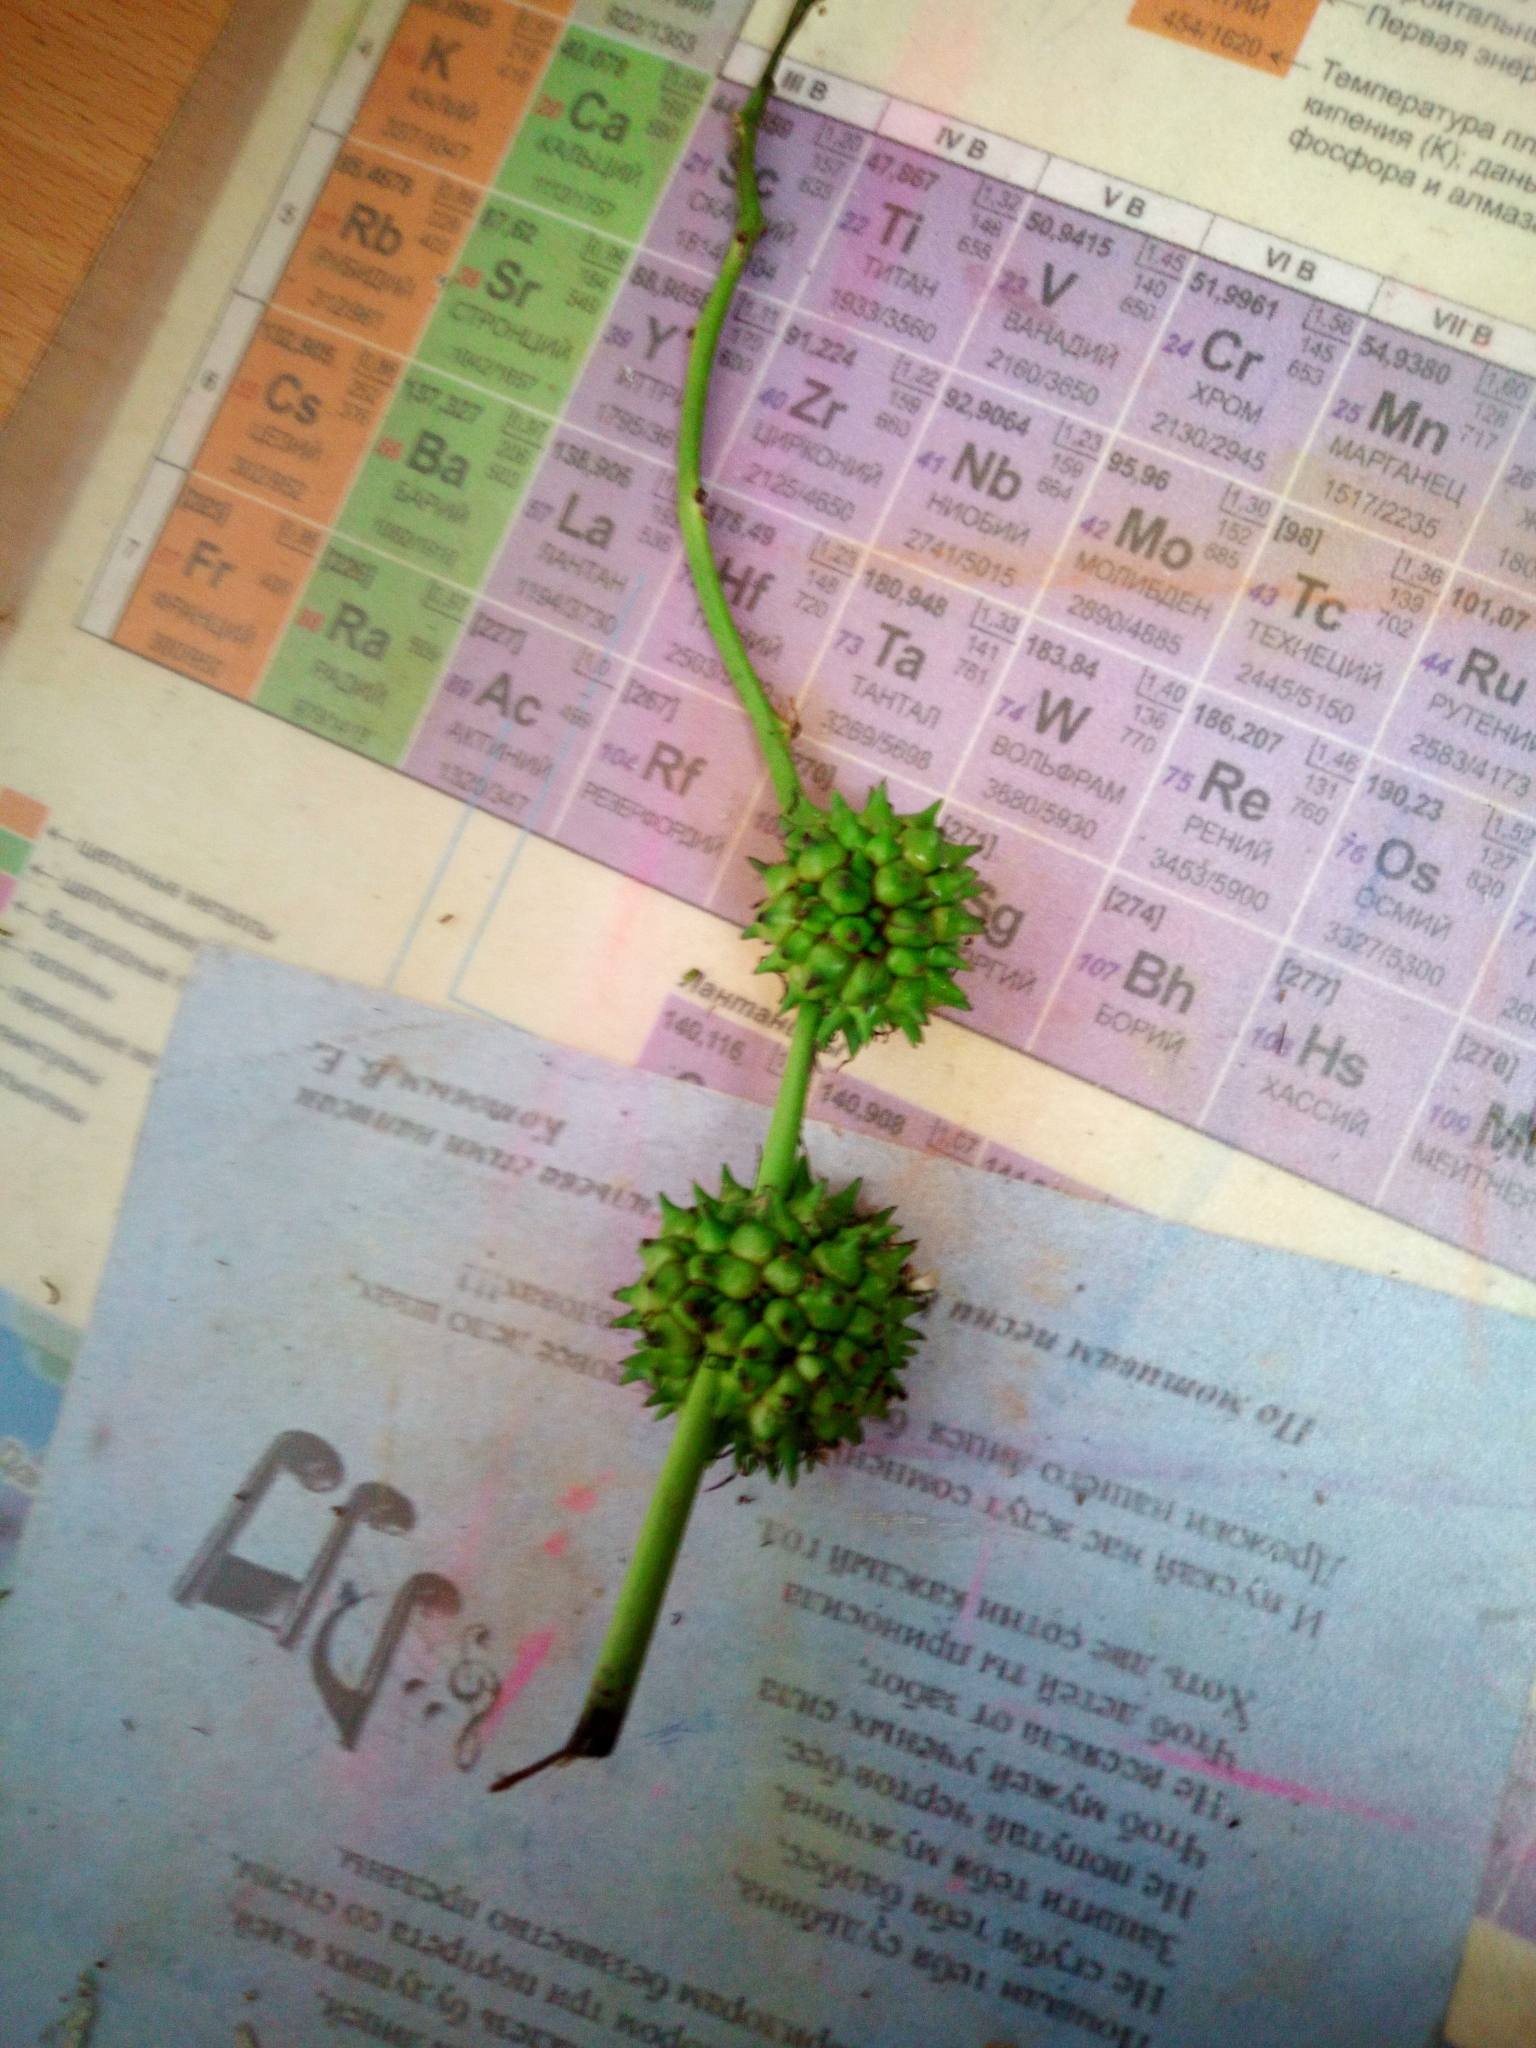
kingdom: Plantae
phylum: Tracheophyta
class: Liliopsida
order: Poales
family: Typhaceae
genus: Sparganium
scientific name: Sparganium erectum
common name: Branched bur-reed
